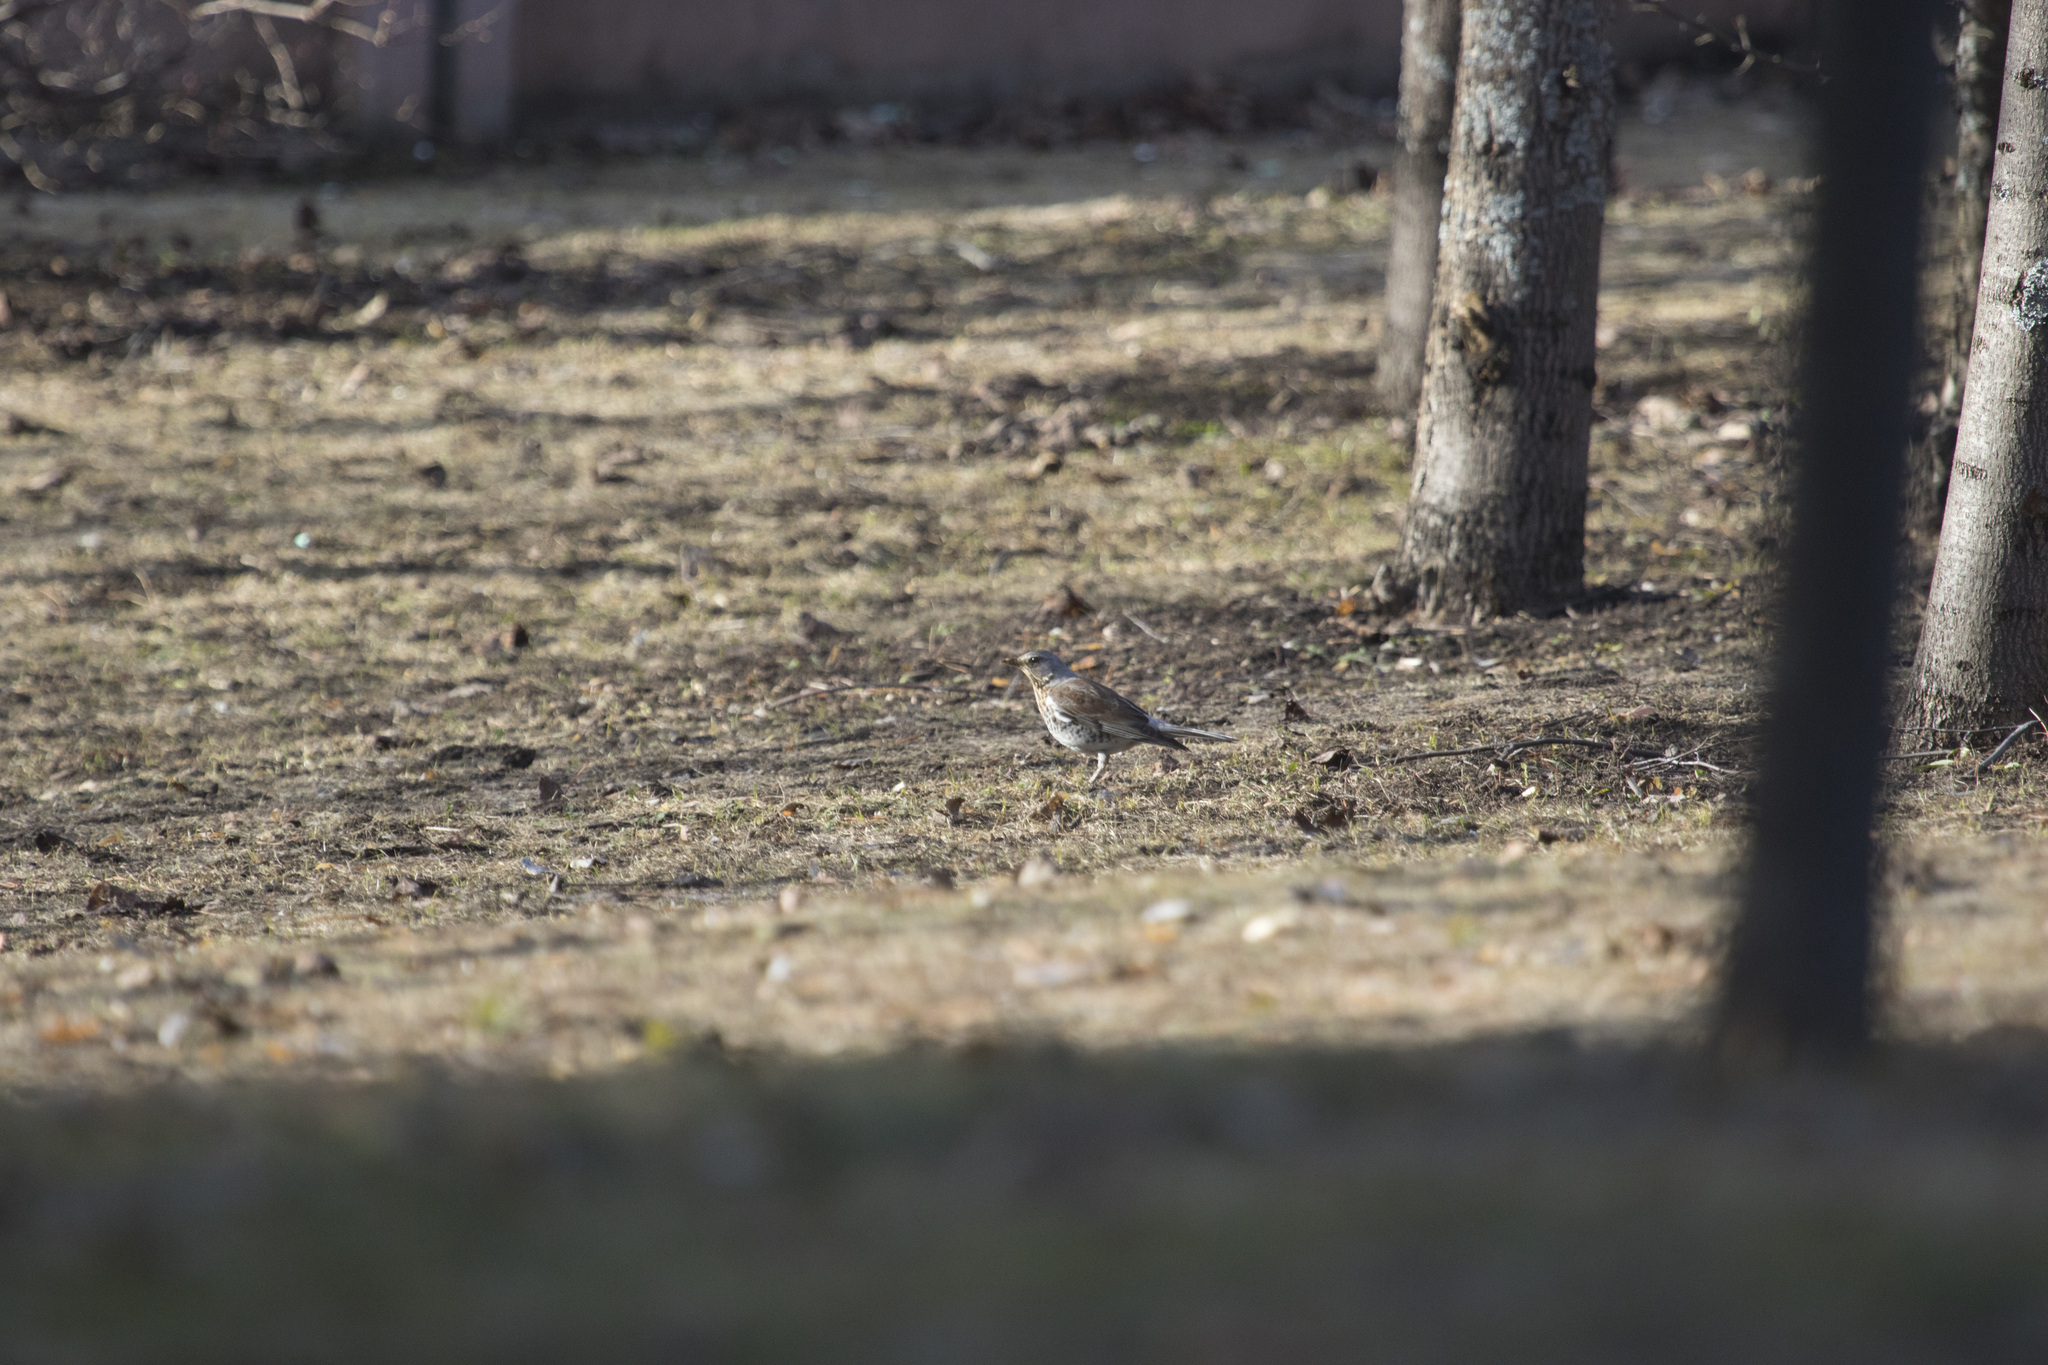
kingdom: Animalia
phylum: Chordata
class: Aves
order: Passeriformes
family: Turdidae
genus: Turdus
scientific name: Turdus pilaris
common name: Fieldfare
